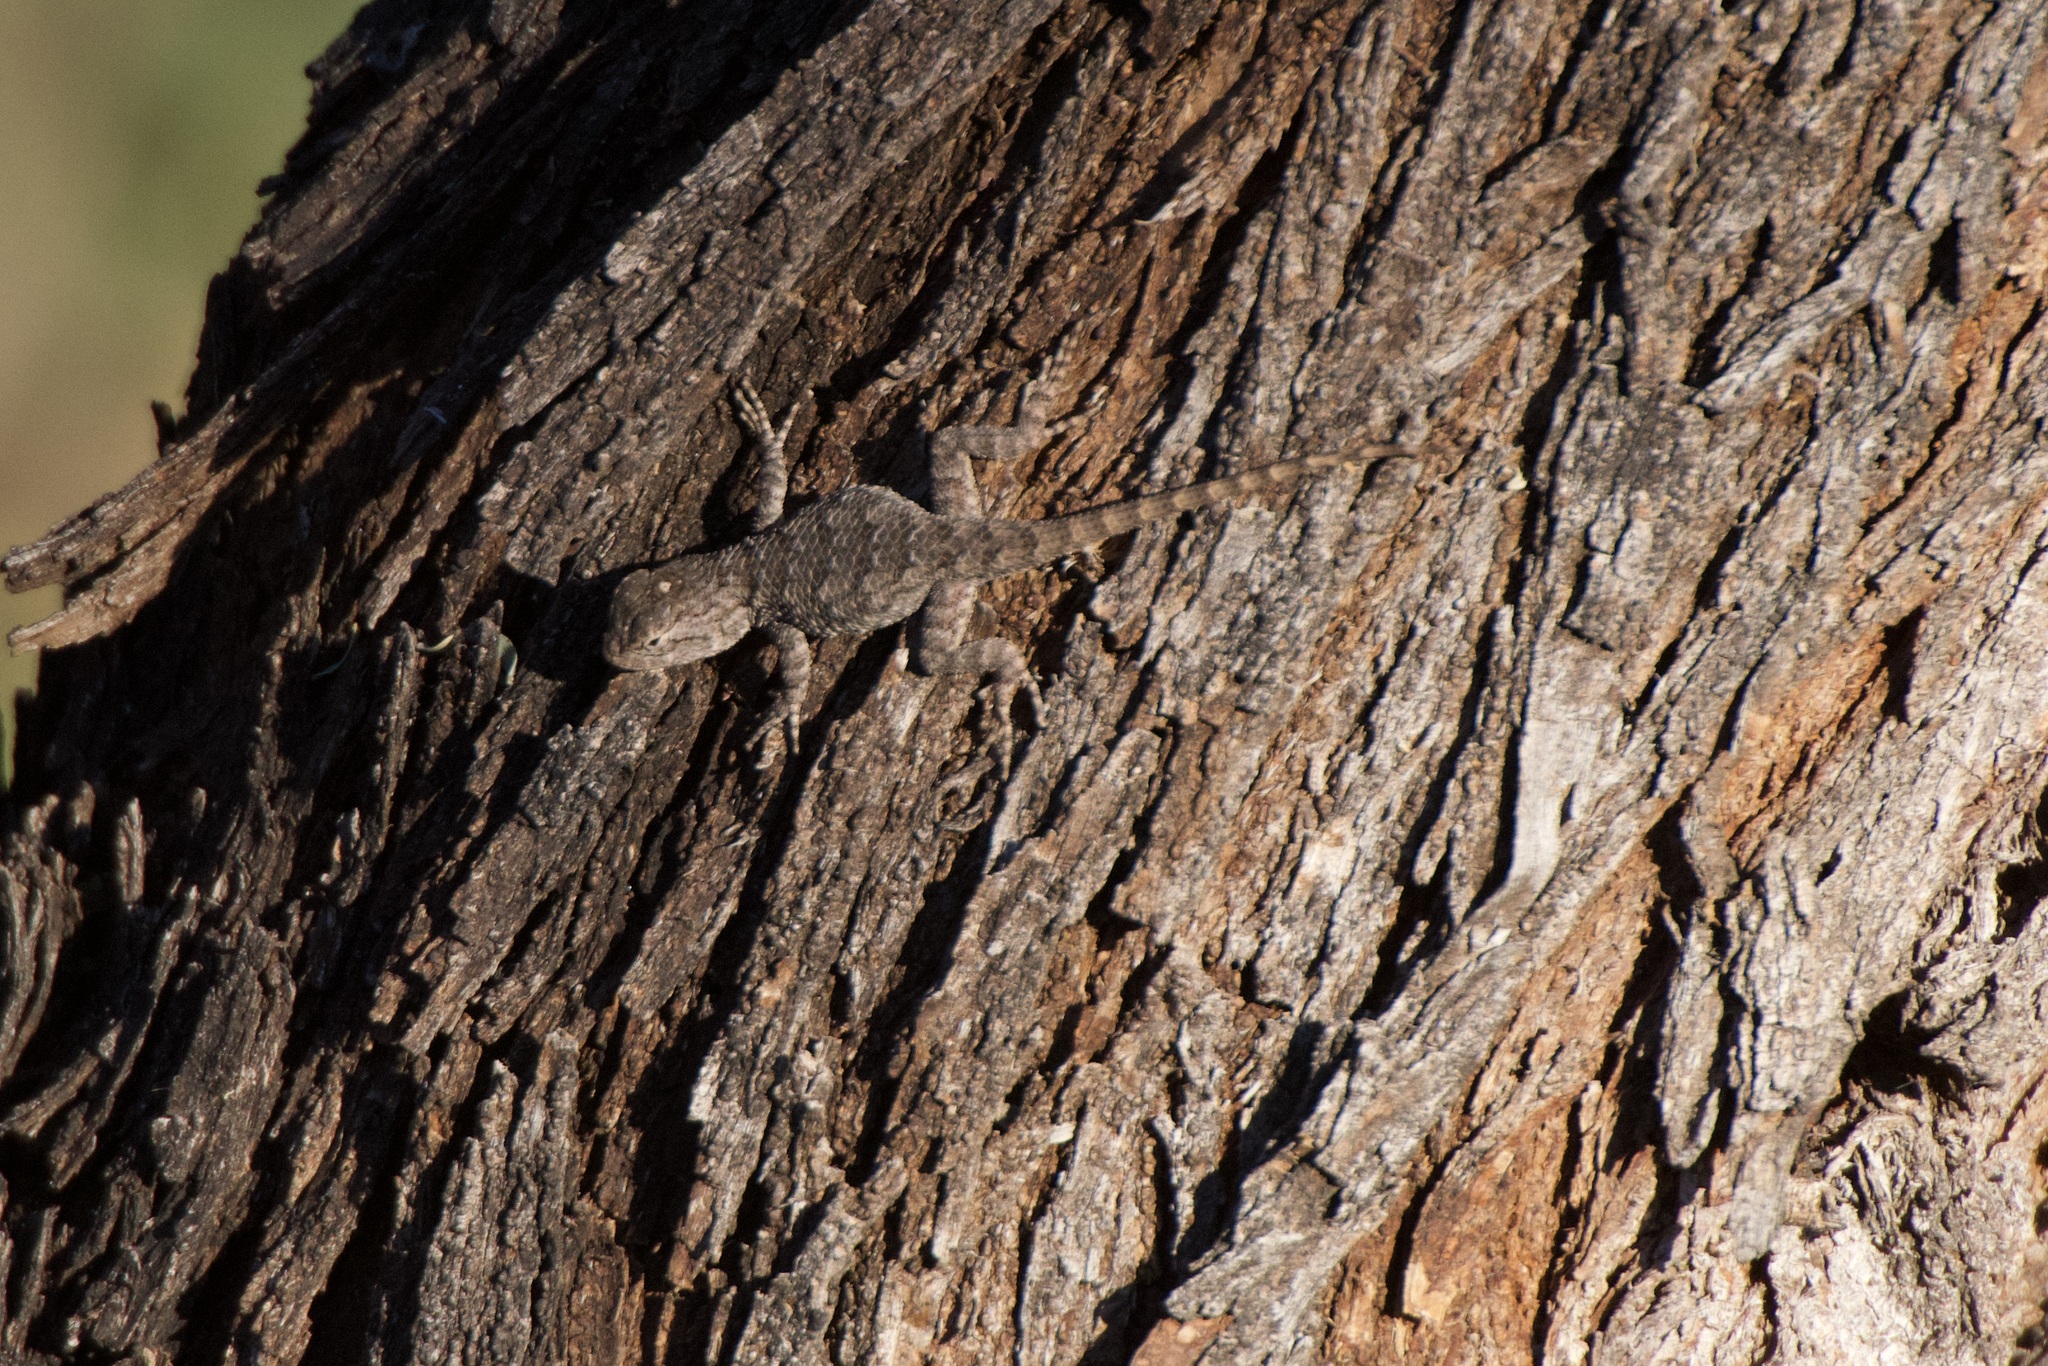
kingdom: Animalia
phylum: Chordata
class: Squamata
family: Phrynosomatidae
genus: Sceloporus
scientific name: Sceloporus clarkii
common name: Clark's spiny lizard
